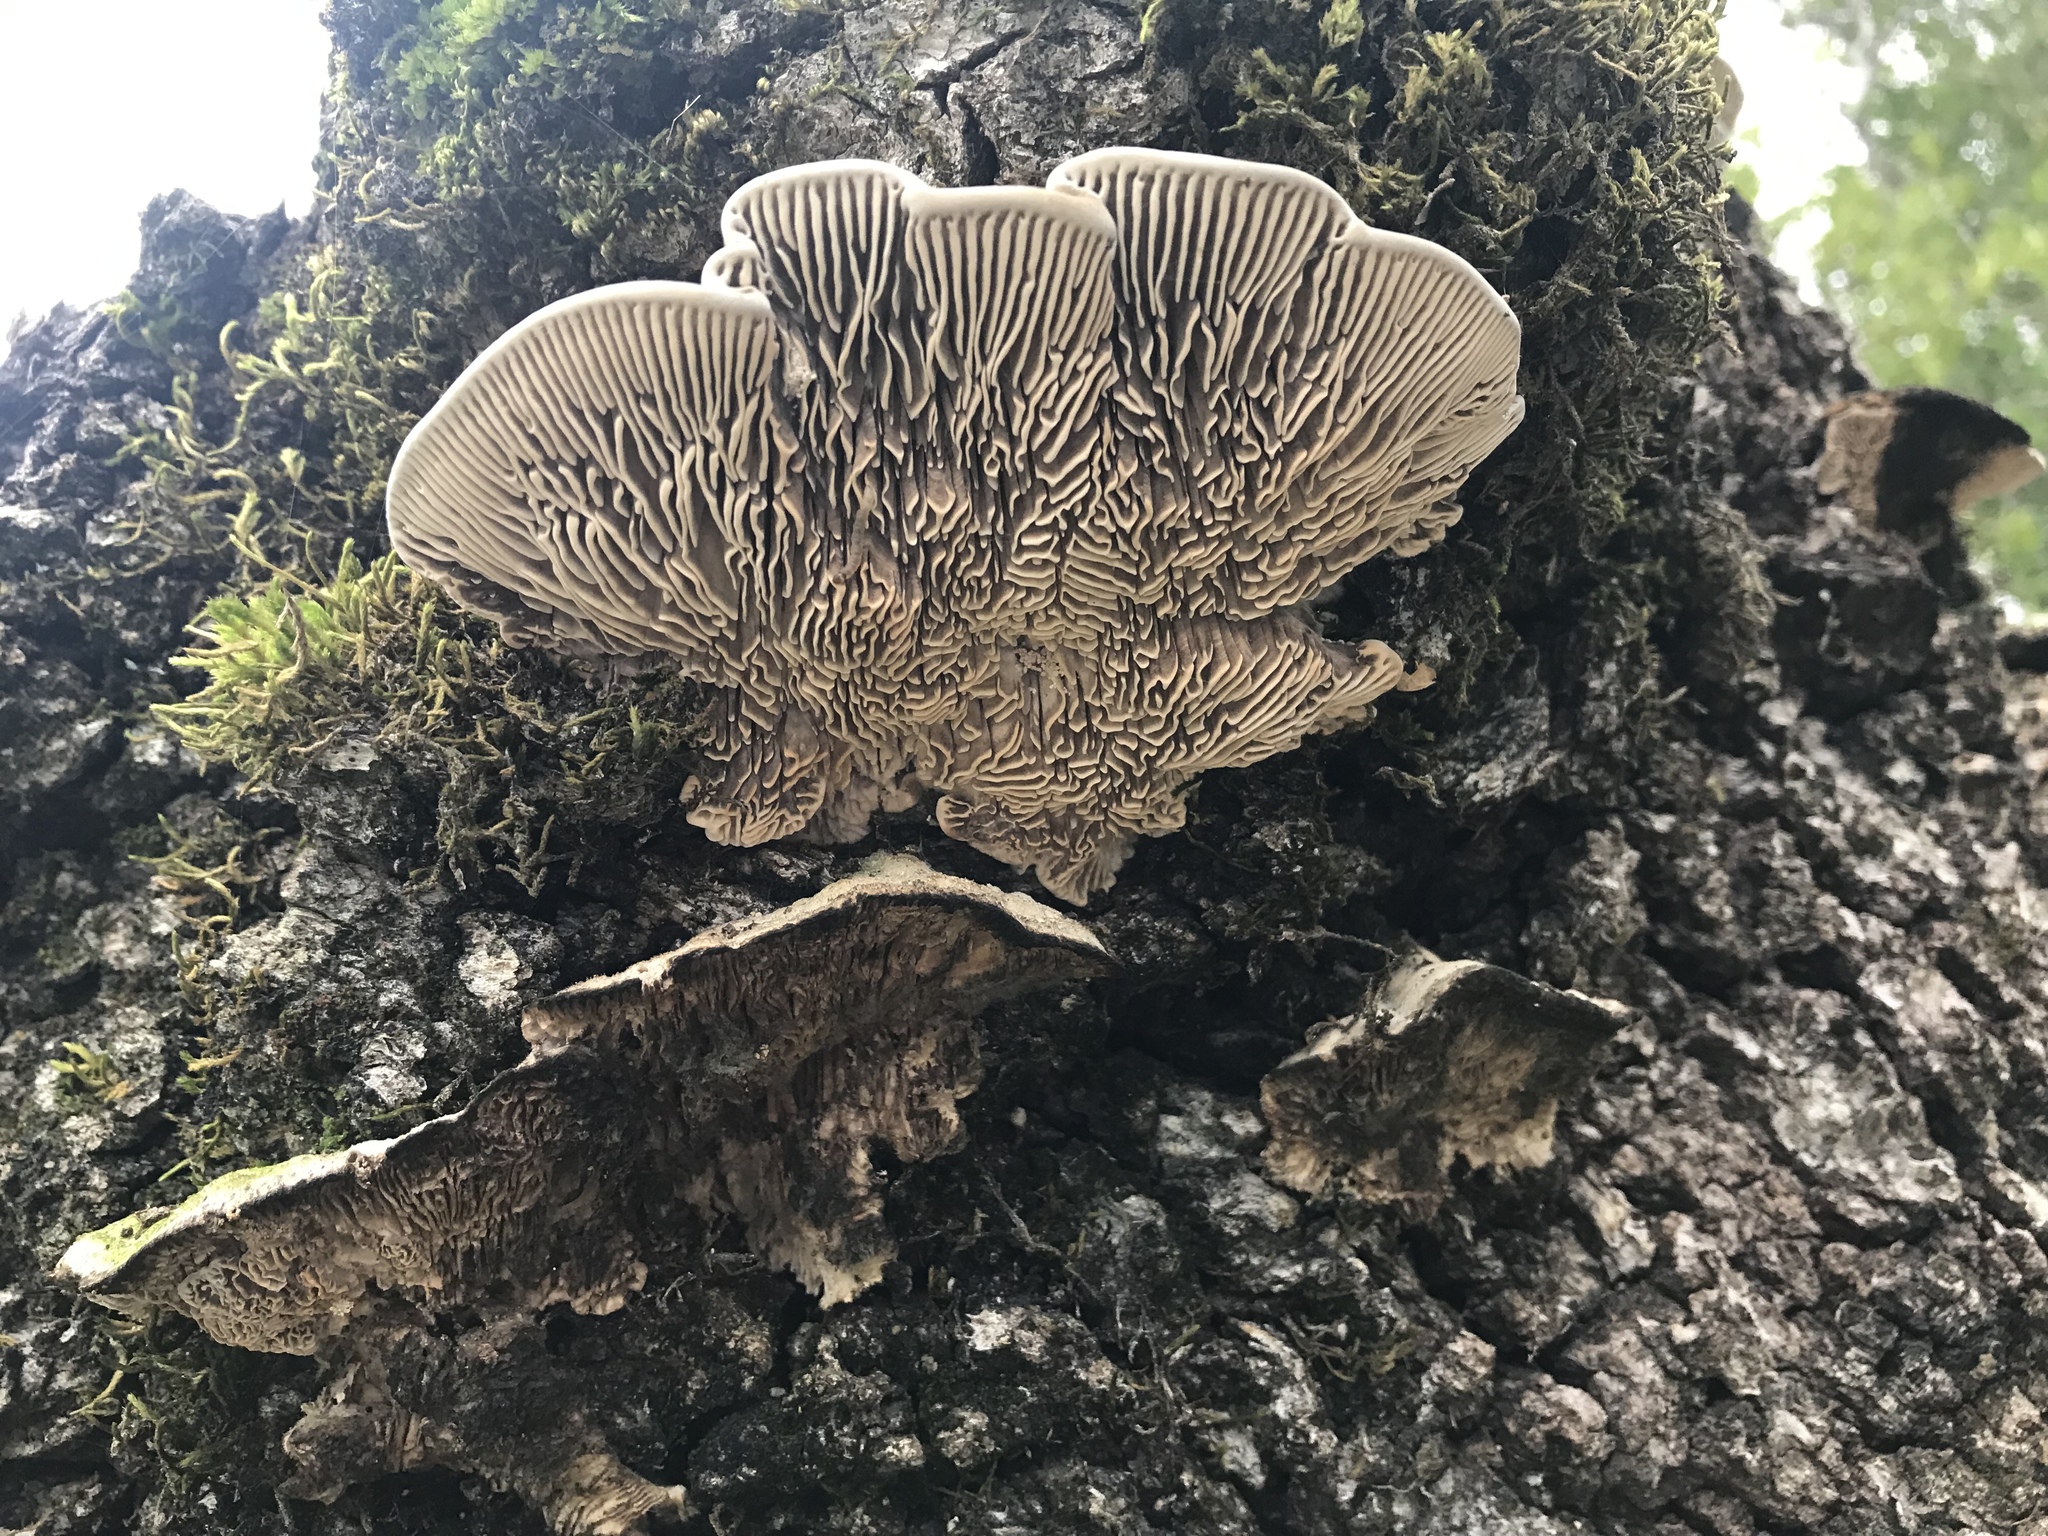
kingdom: Fungi
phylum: Basidiomycota
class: Agaricomycetes
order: Polyporales
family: Polyporaceae
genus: Lenzites
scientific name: Lenzites betulinus
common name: Birch mazegill
